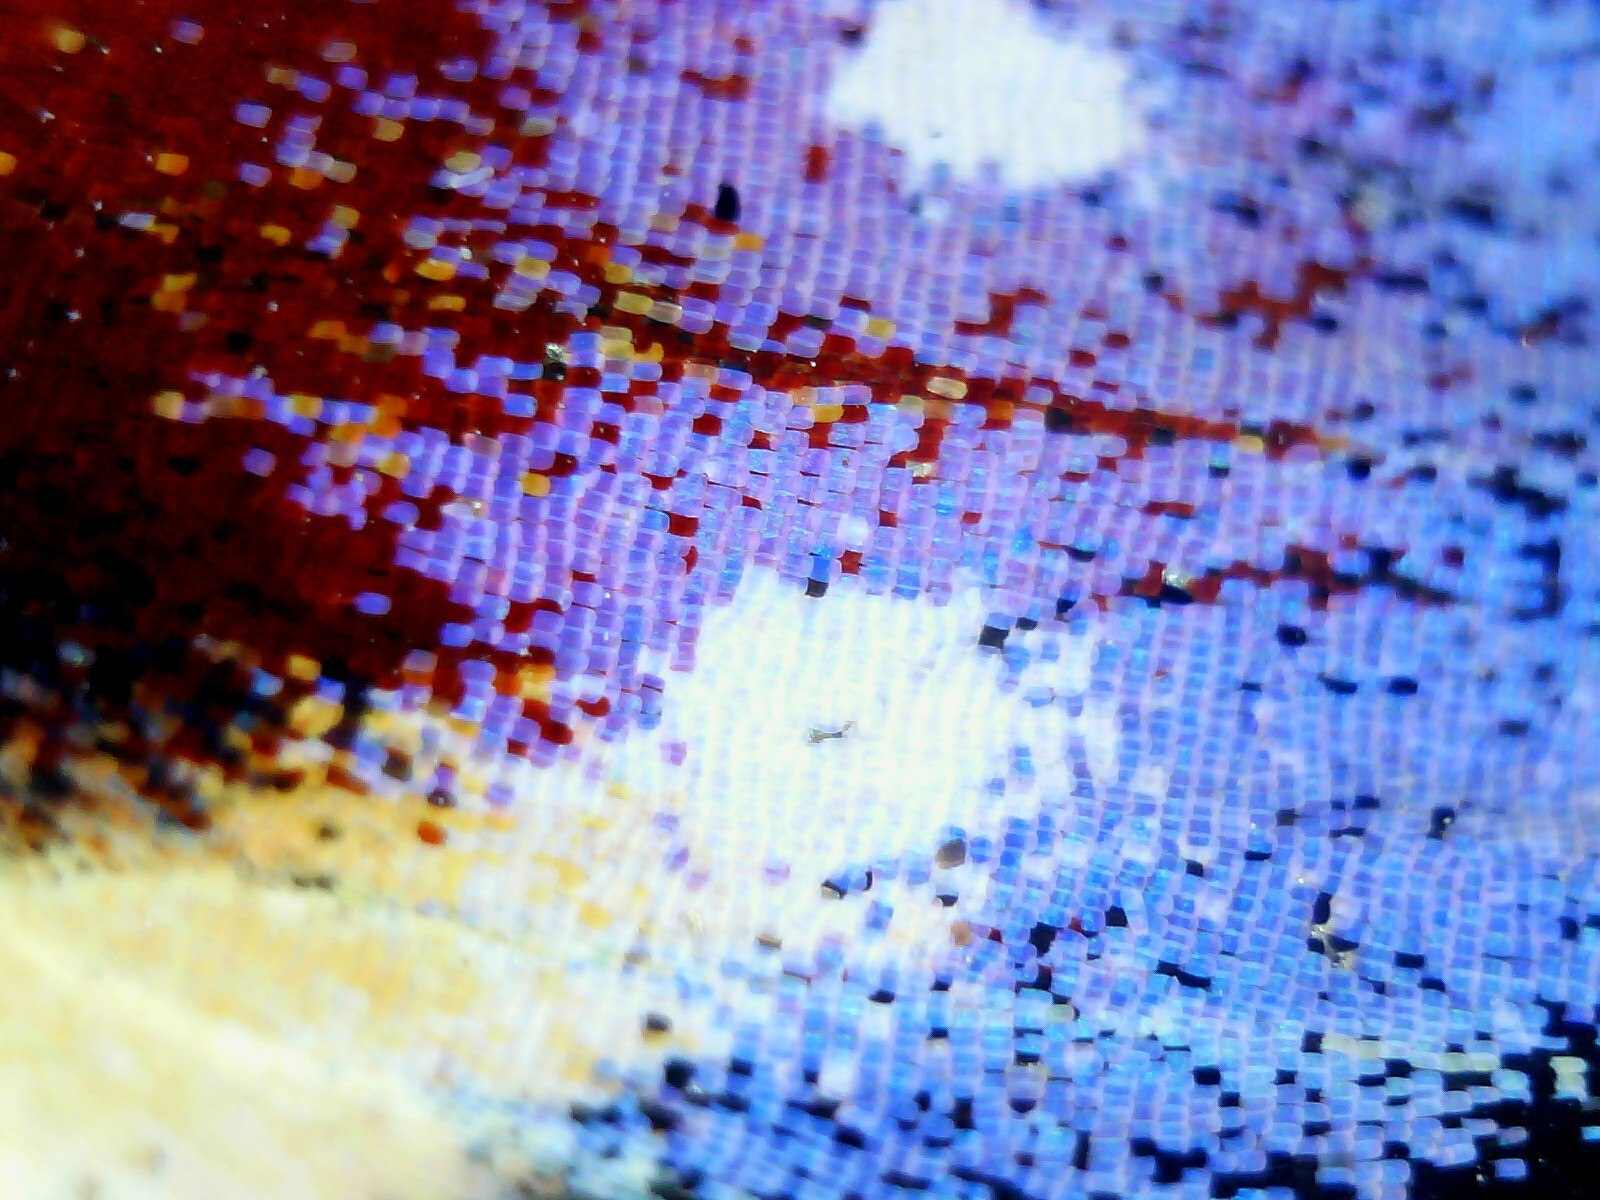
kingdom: Animalia
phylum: Arthropoda
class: Insecta
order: Lepidoptera
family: Nymphalidae
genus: Aglais
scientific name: Aglais io
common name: Peacock
